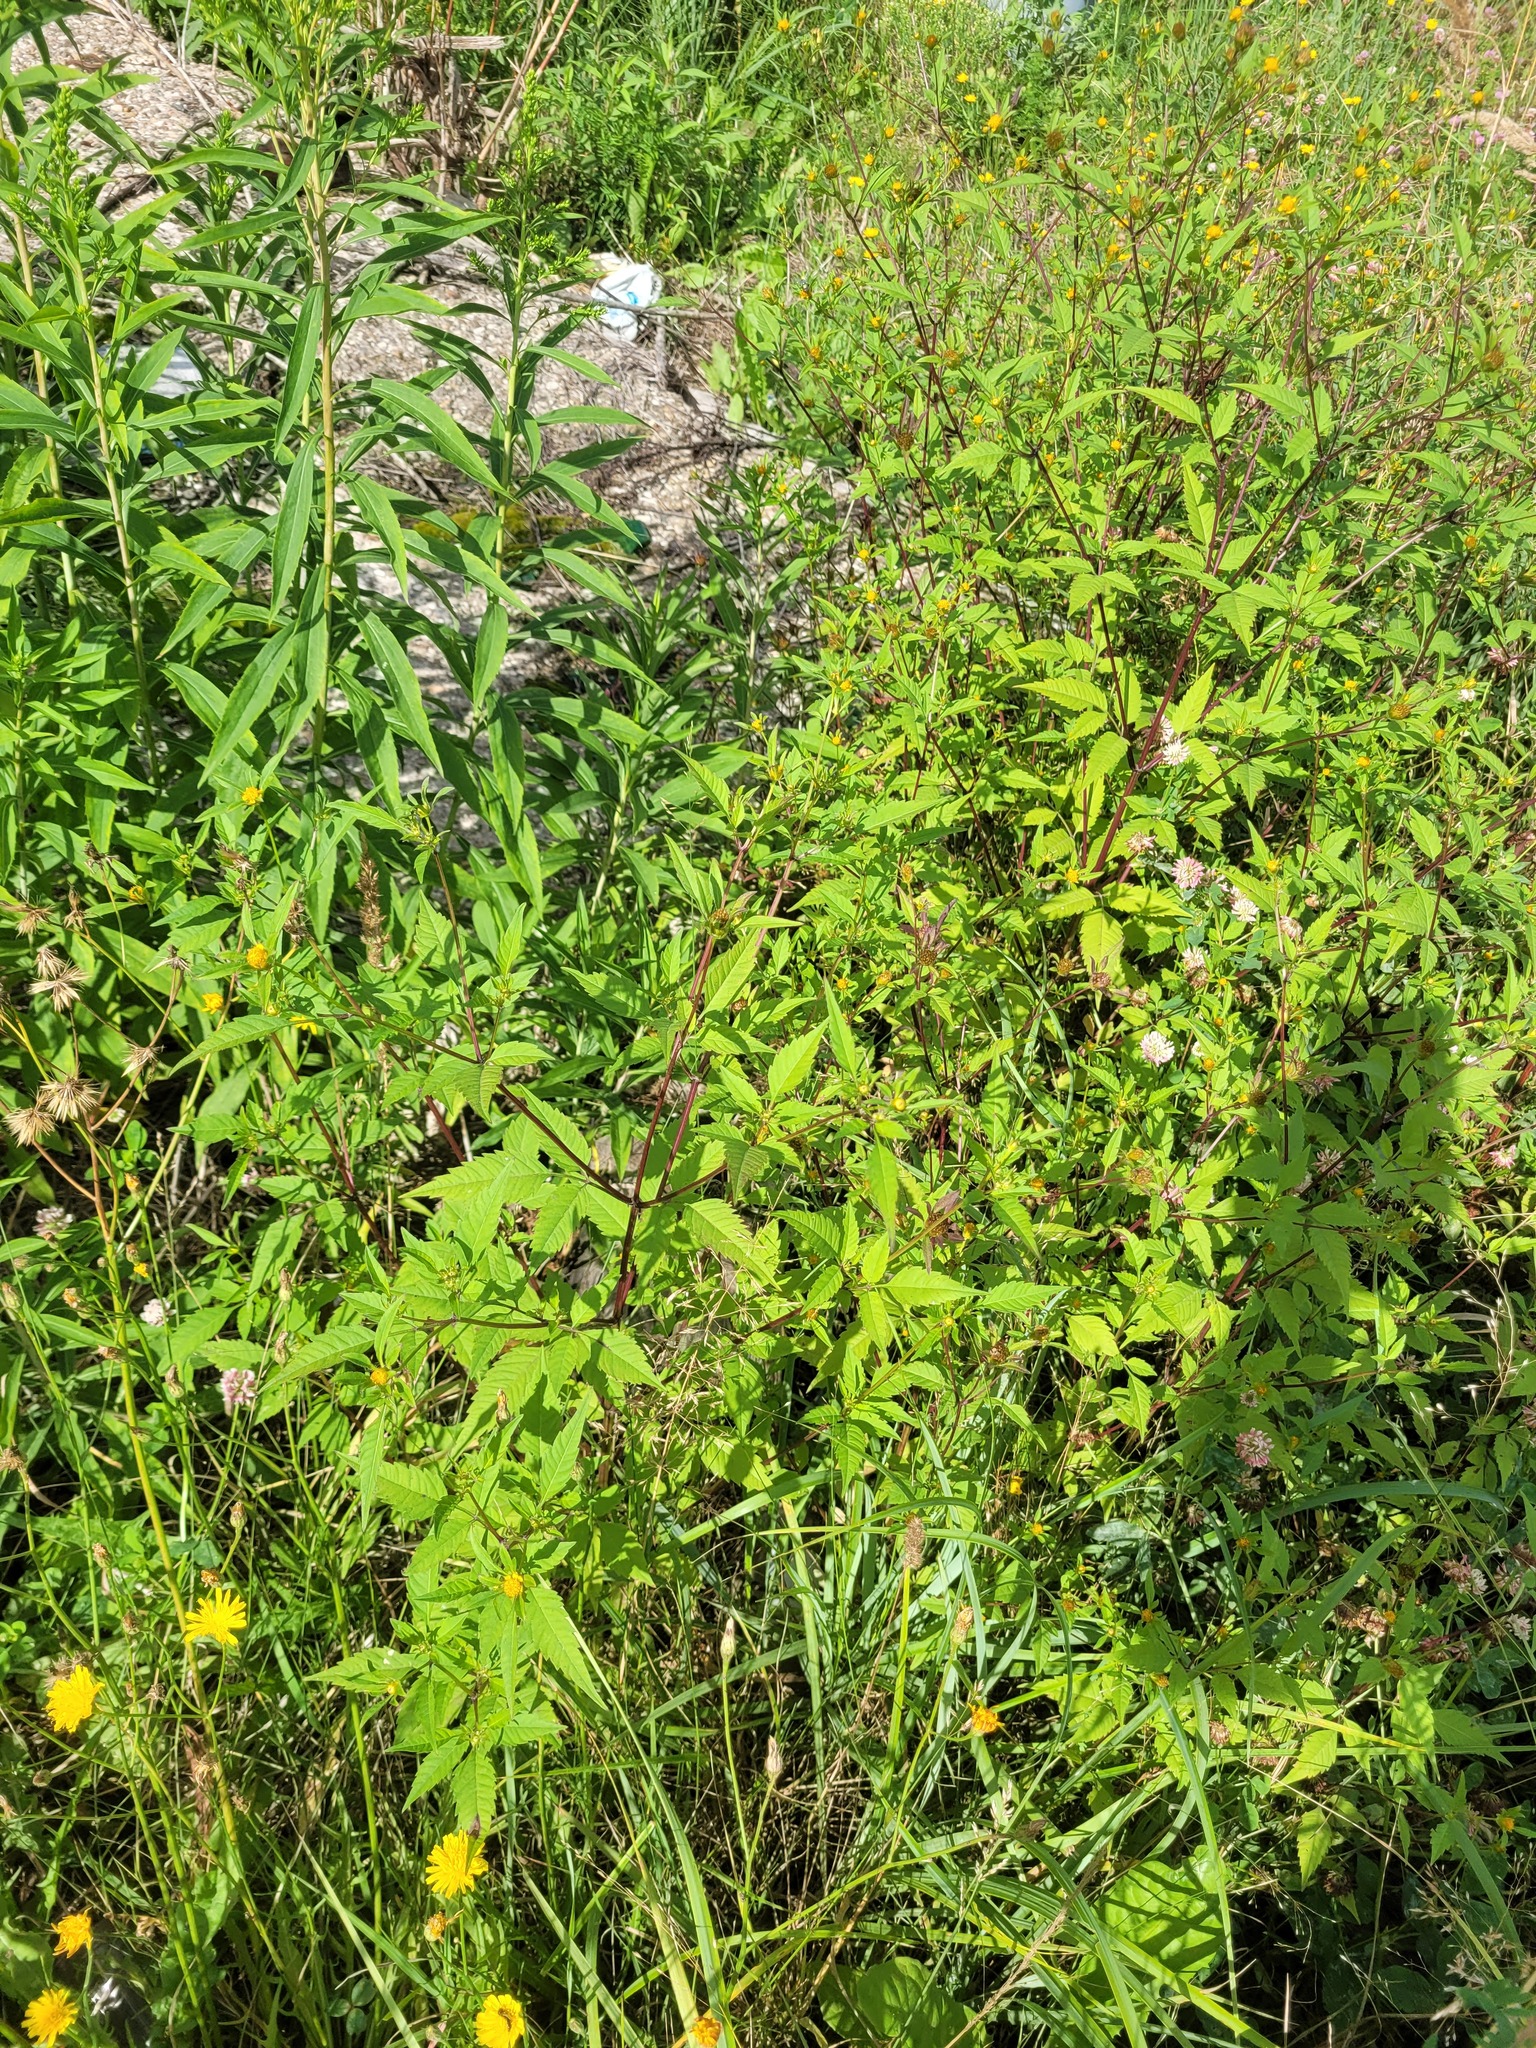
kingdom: Plantae
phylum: Tracheophyta
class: Magnoliopsida
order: Asterales
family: Asteraceae
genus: Bidens
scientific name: Bidens frondosa
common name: Beggarticks
